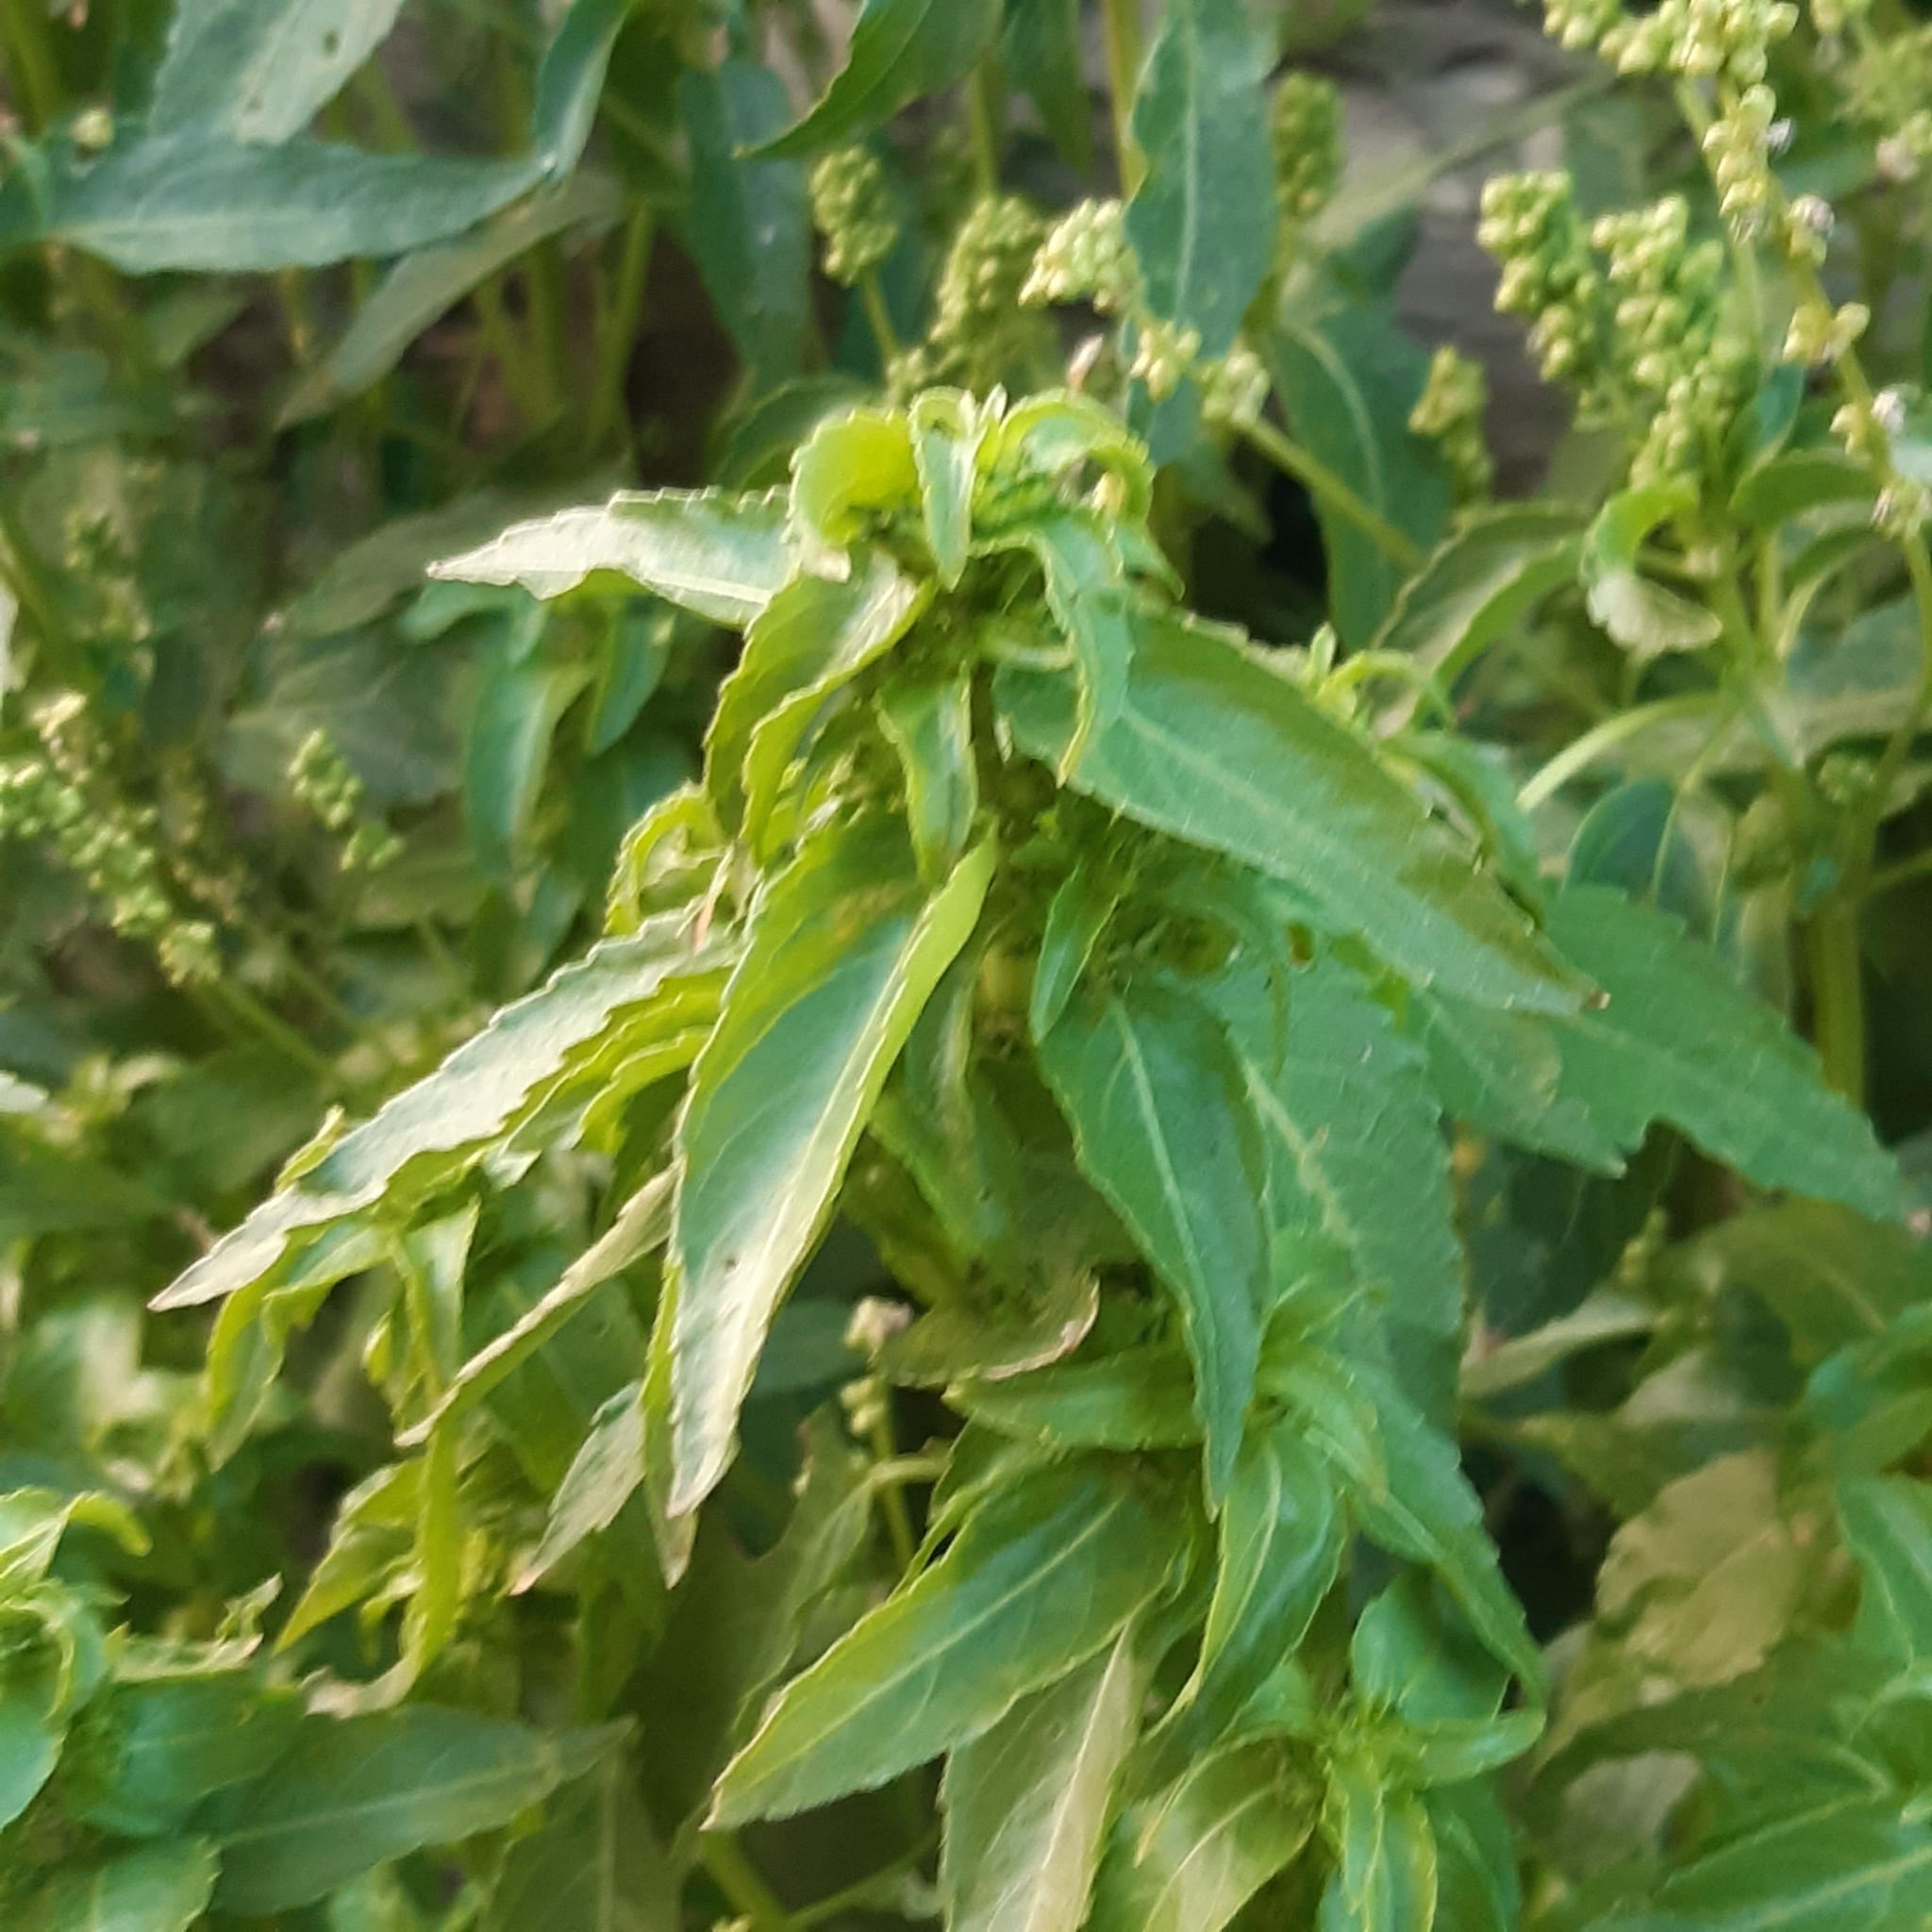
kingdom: Plantae
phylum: Tracheophyta
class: Magnoliopsida
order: Malpighiales
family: Euphorbiaceae
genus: Mercurialis
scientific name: Mercurialis annua
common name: Annual mercury
